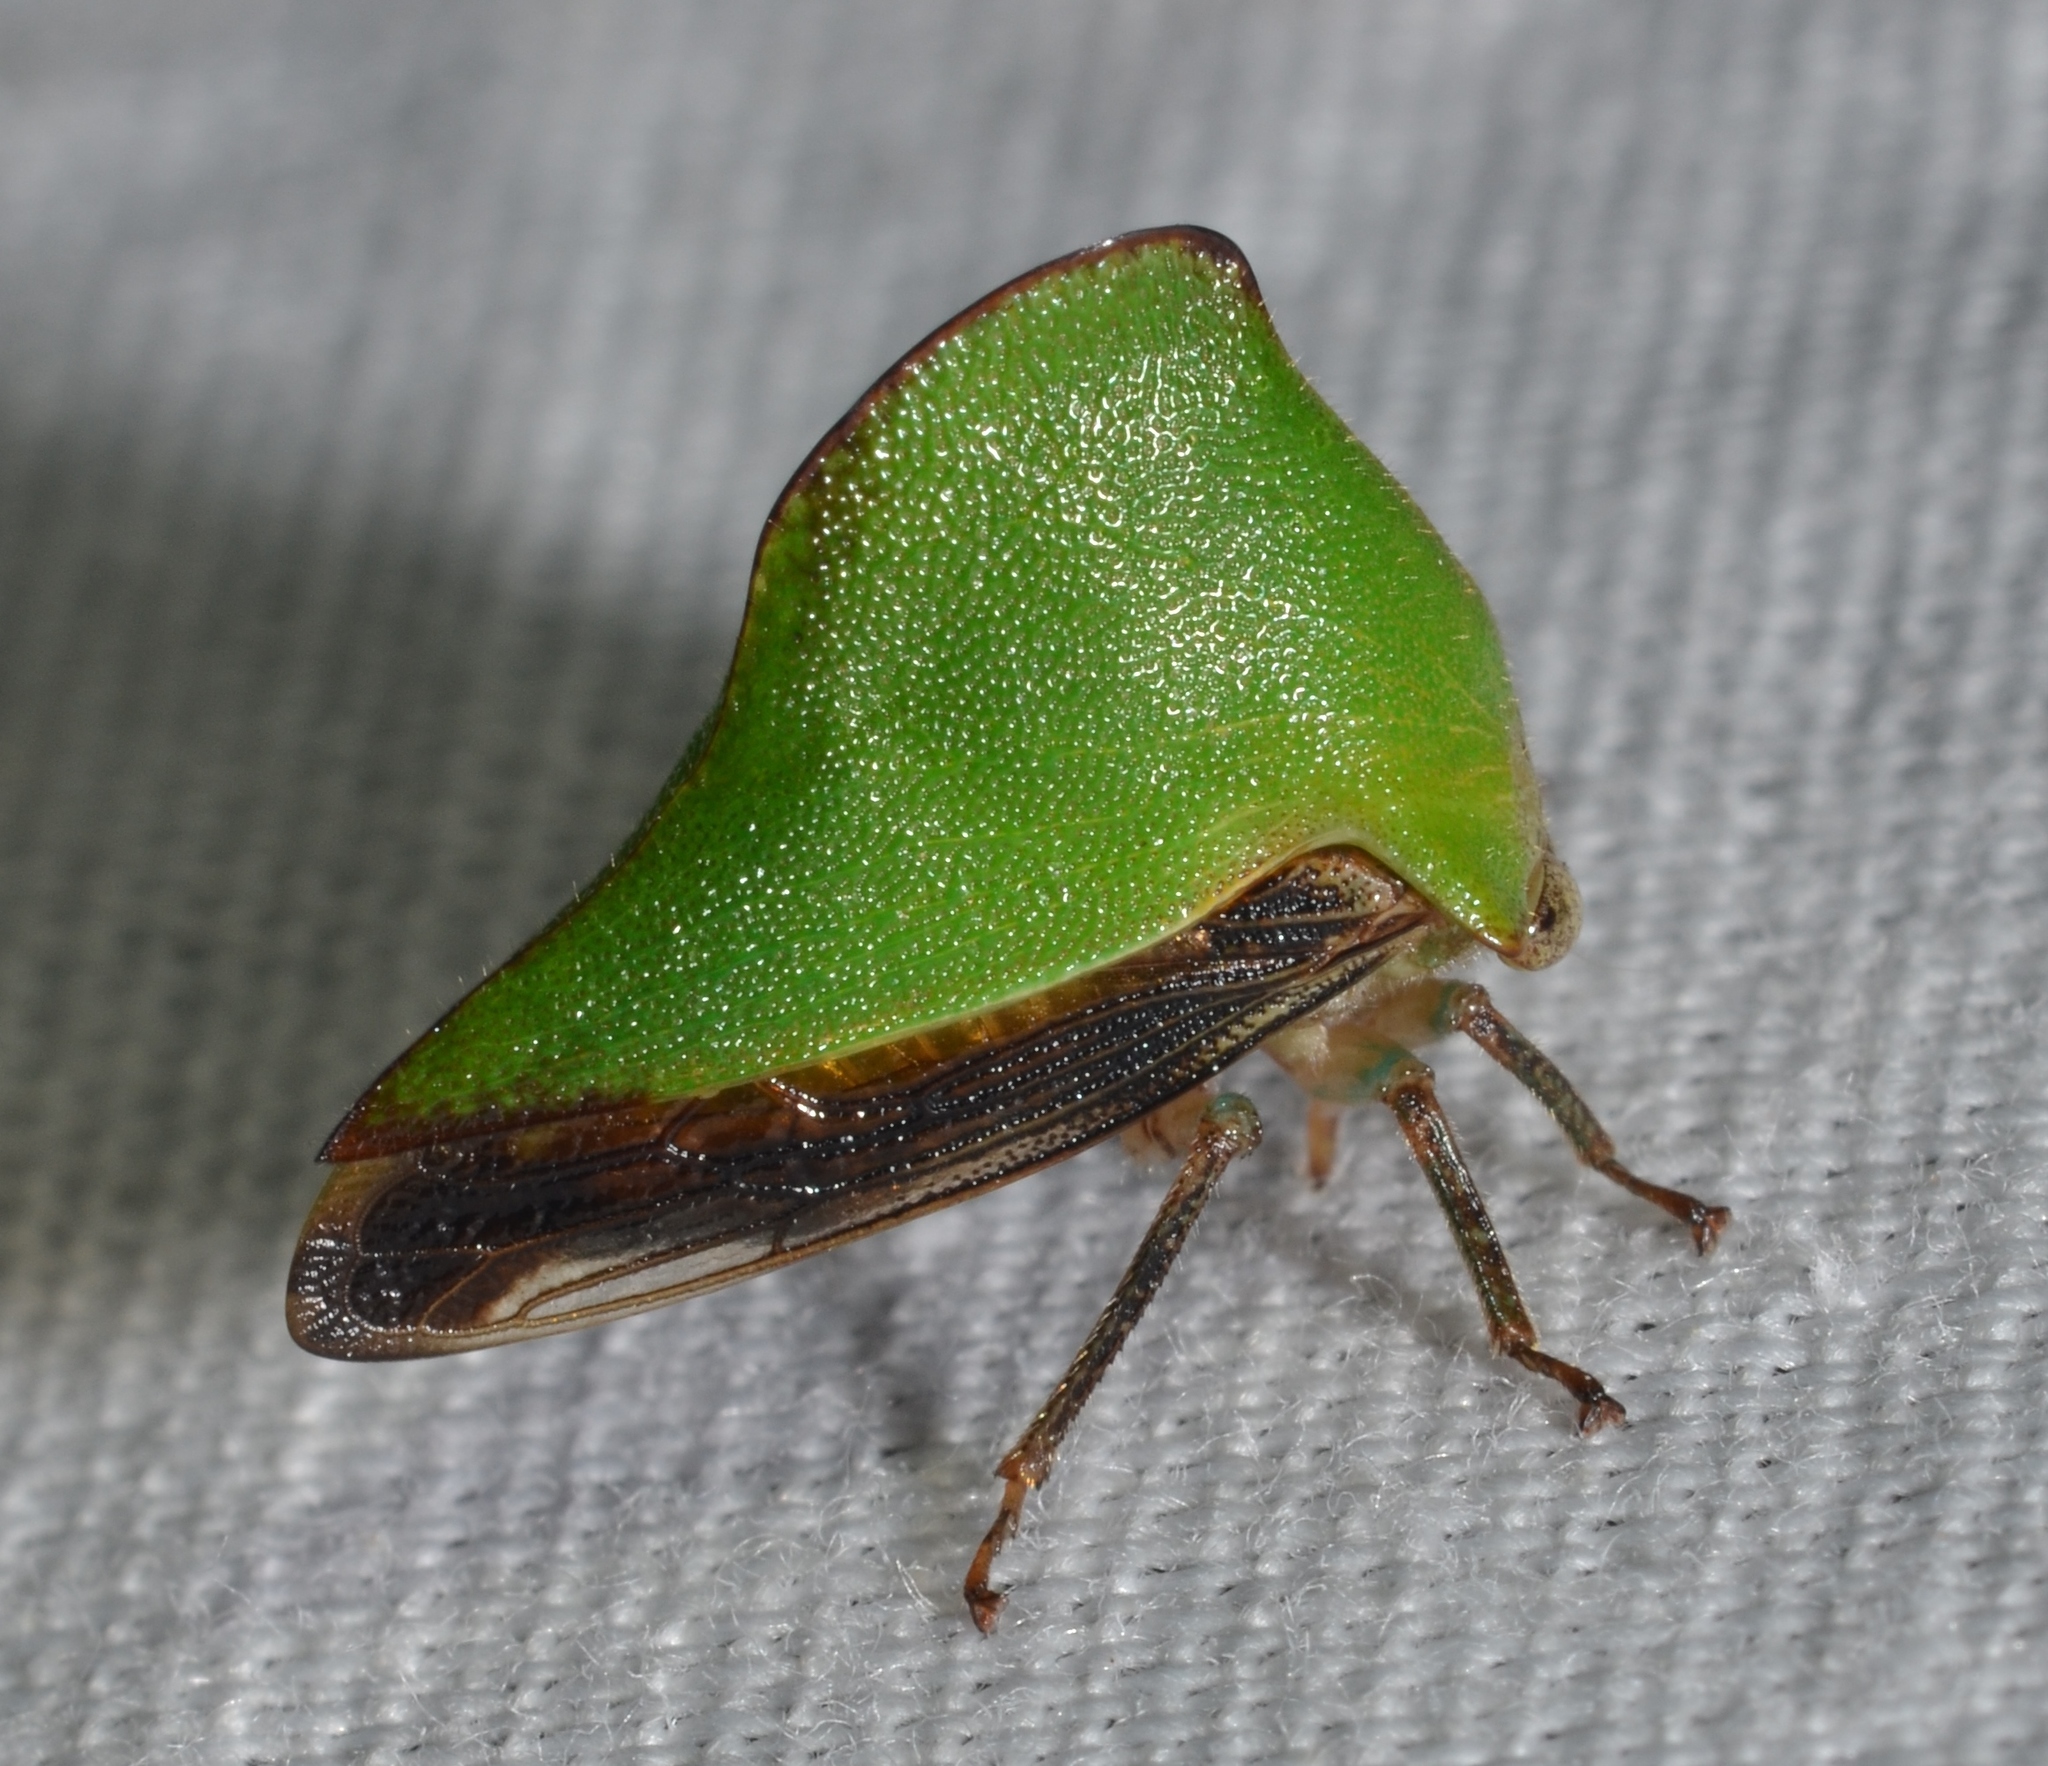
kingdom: Animalia
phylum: Arthropoda
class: Insecta
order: Hemiptera
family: Membracidae
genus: Helonica
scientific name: Helonica excelsa
